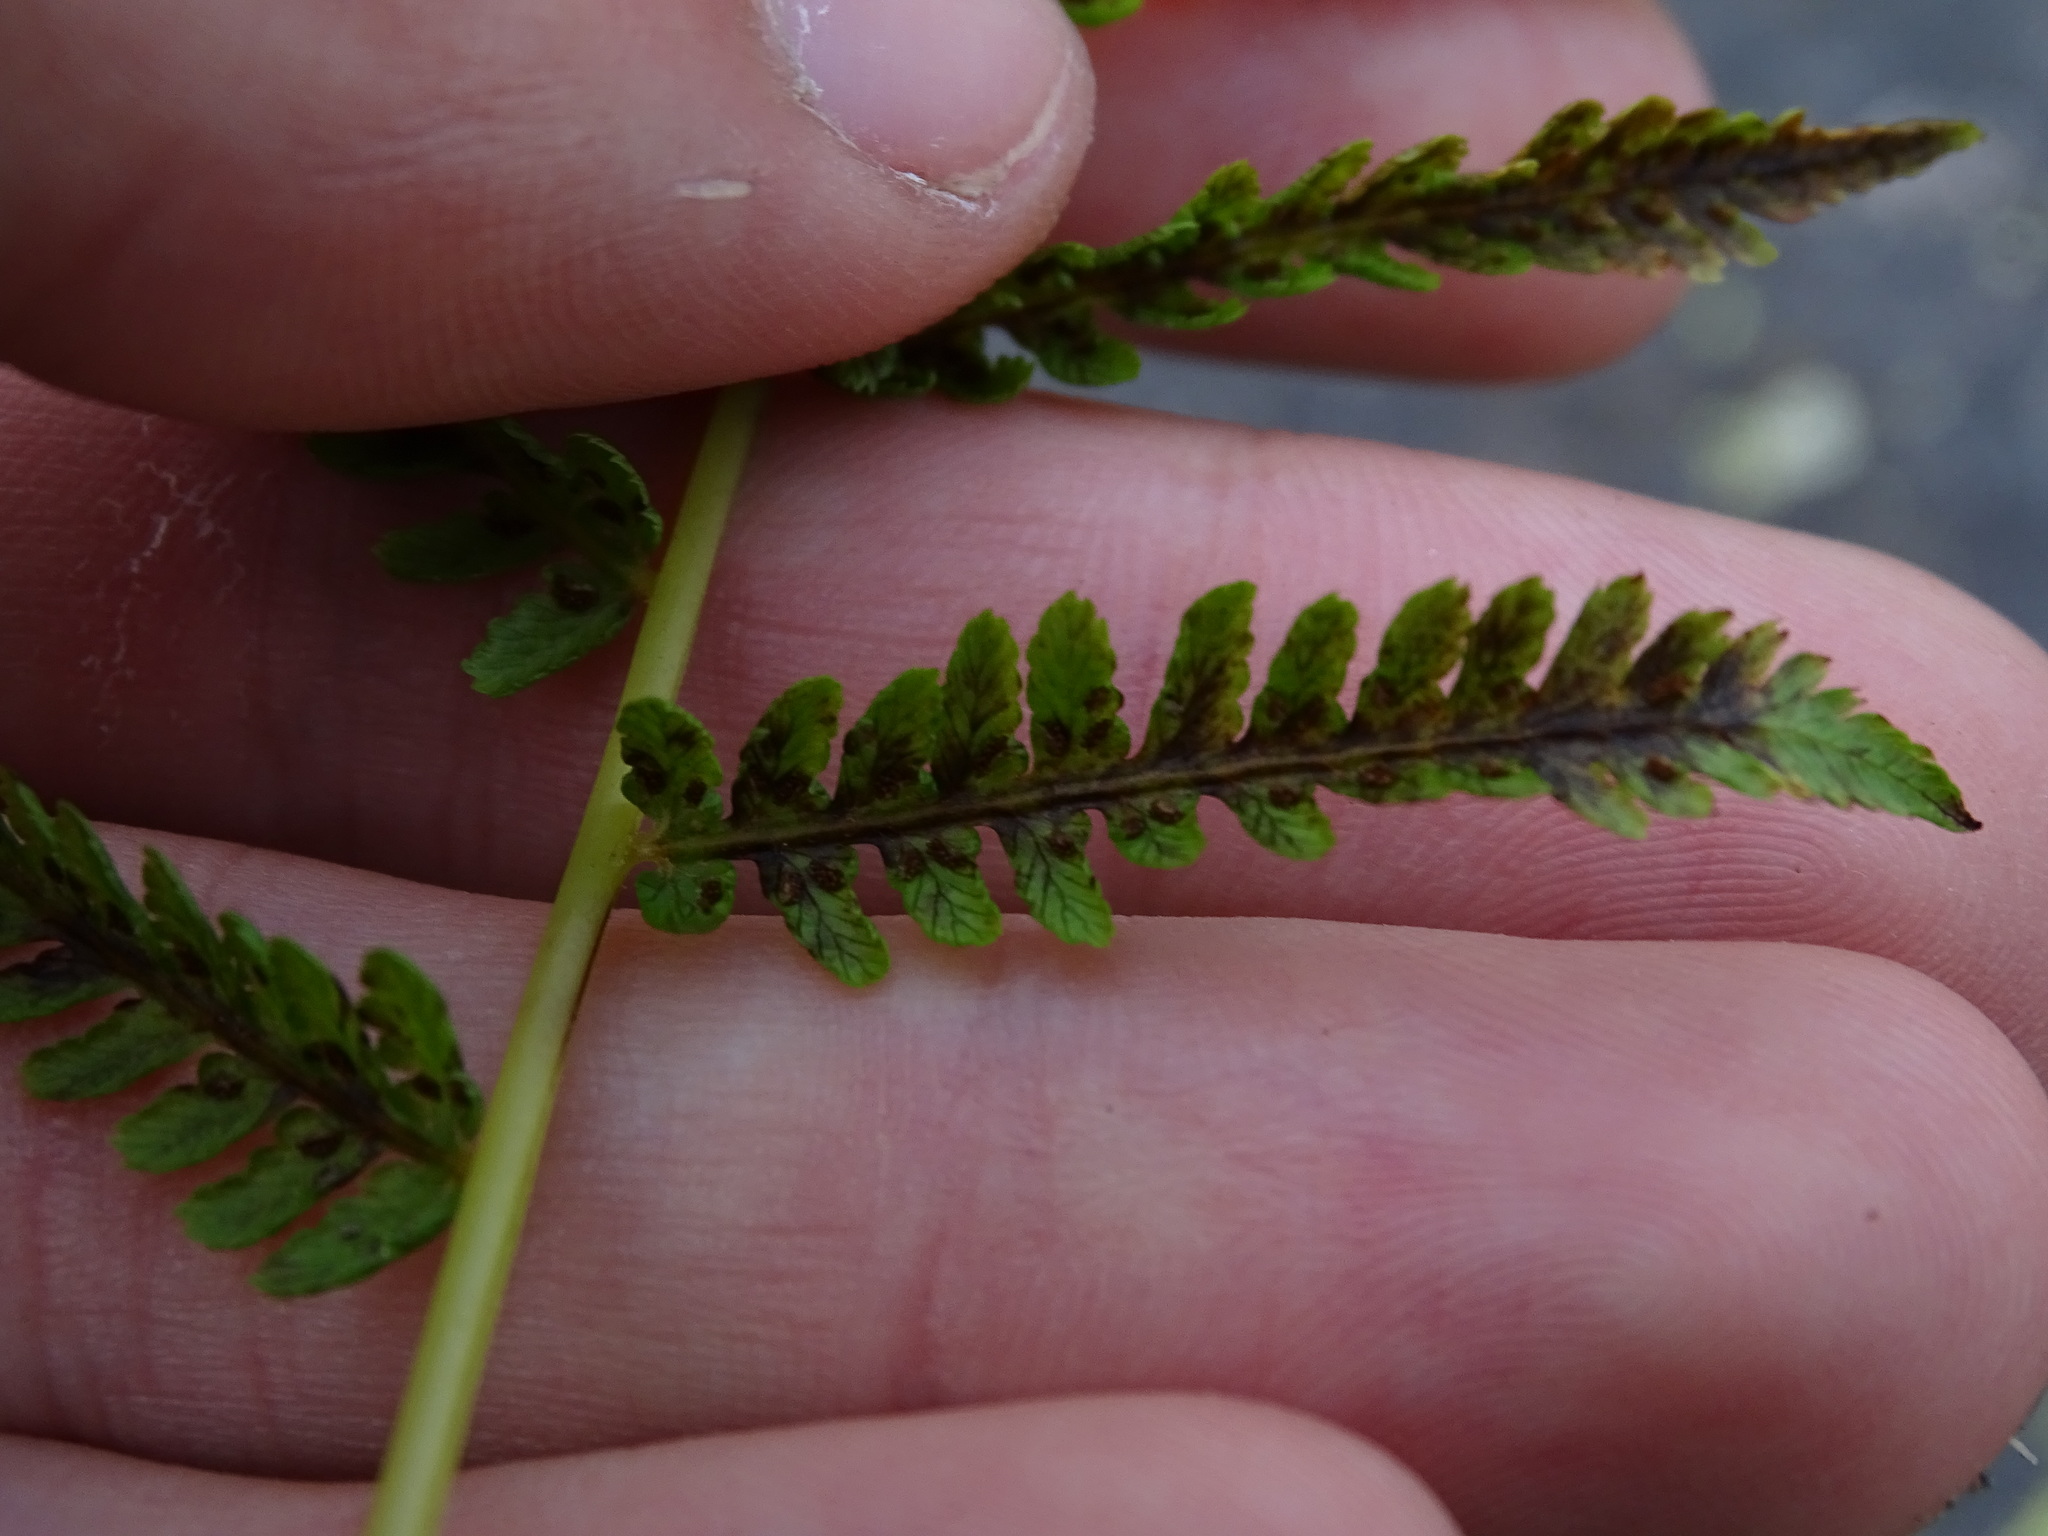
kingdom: Plantae
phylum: Tracheophyta
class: Polypodiopsida
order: Polypodiales
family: Athyriaceae
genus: Athyrium
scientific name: Athyrium angustum
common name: Northern lady fern
